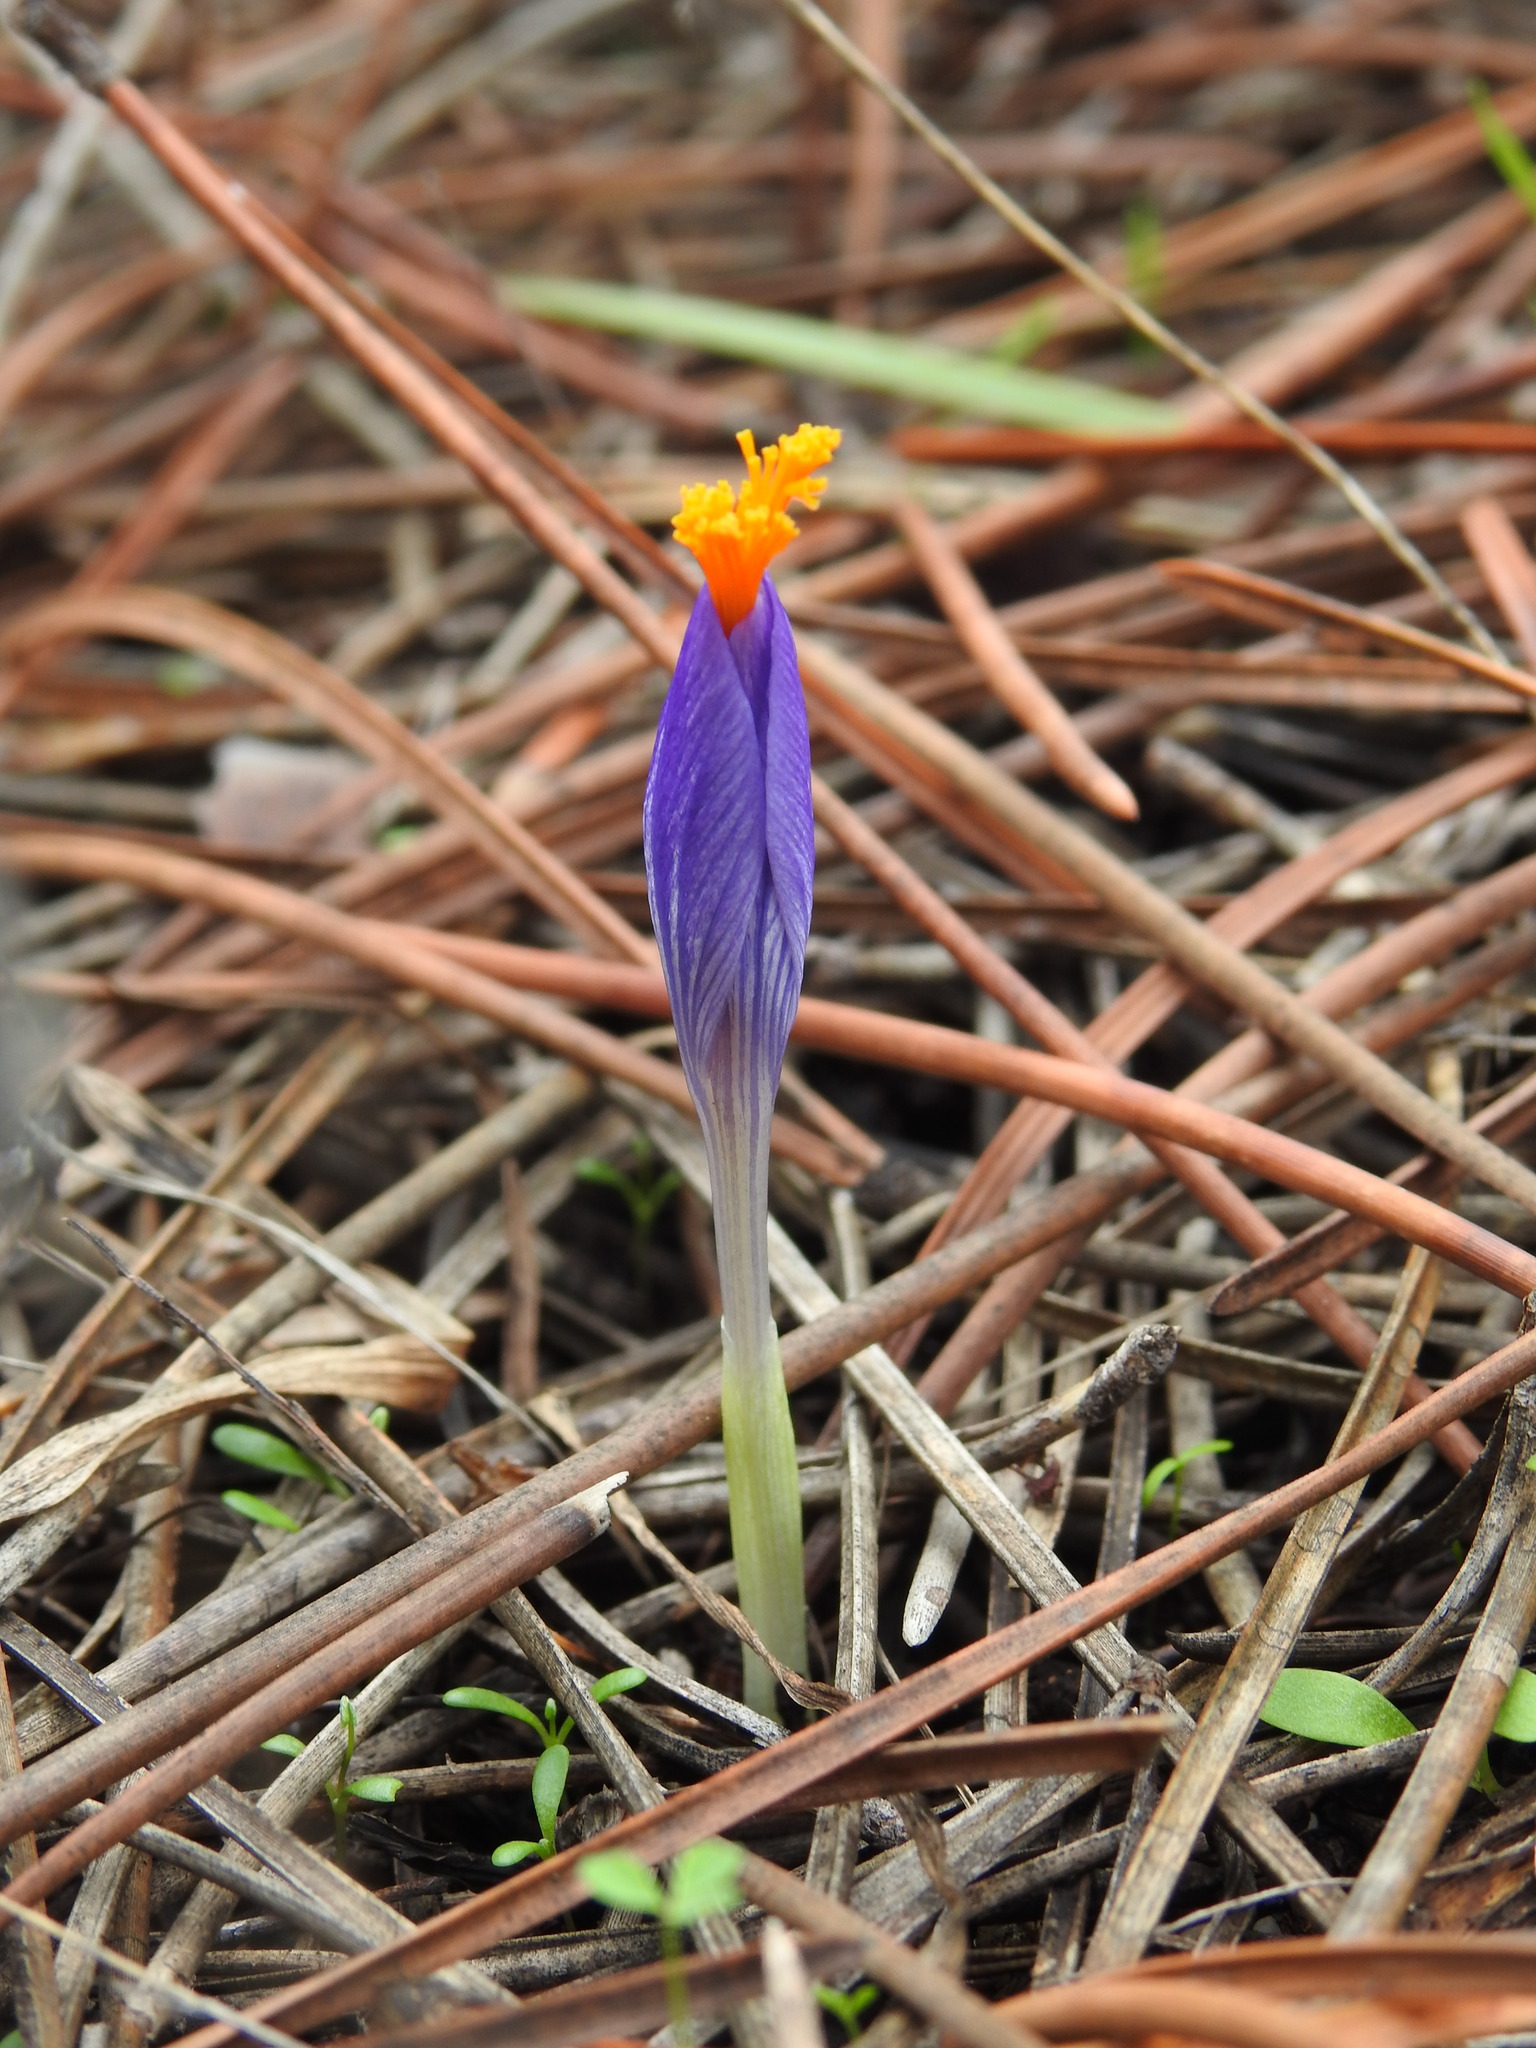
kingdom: Plantae
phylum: Tracheophyta
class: Liliopsida
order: Asparagales
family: Iridaceae
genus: Crocus
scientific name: Crocus serotinus
